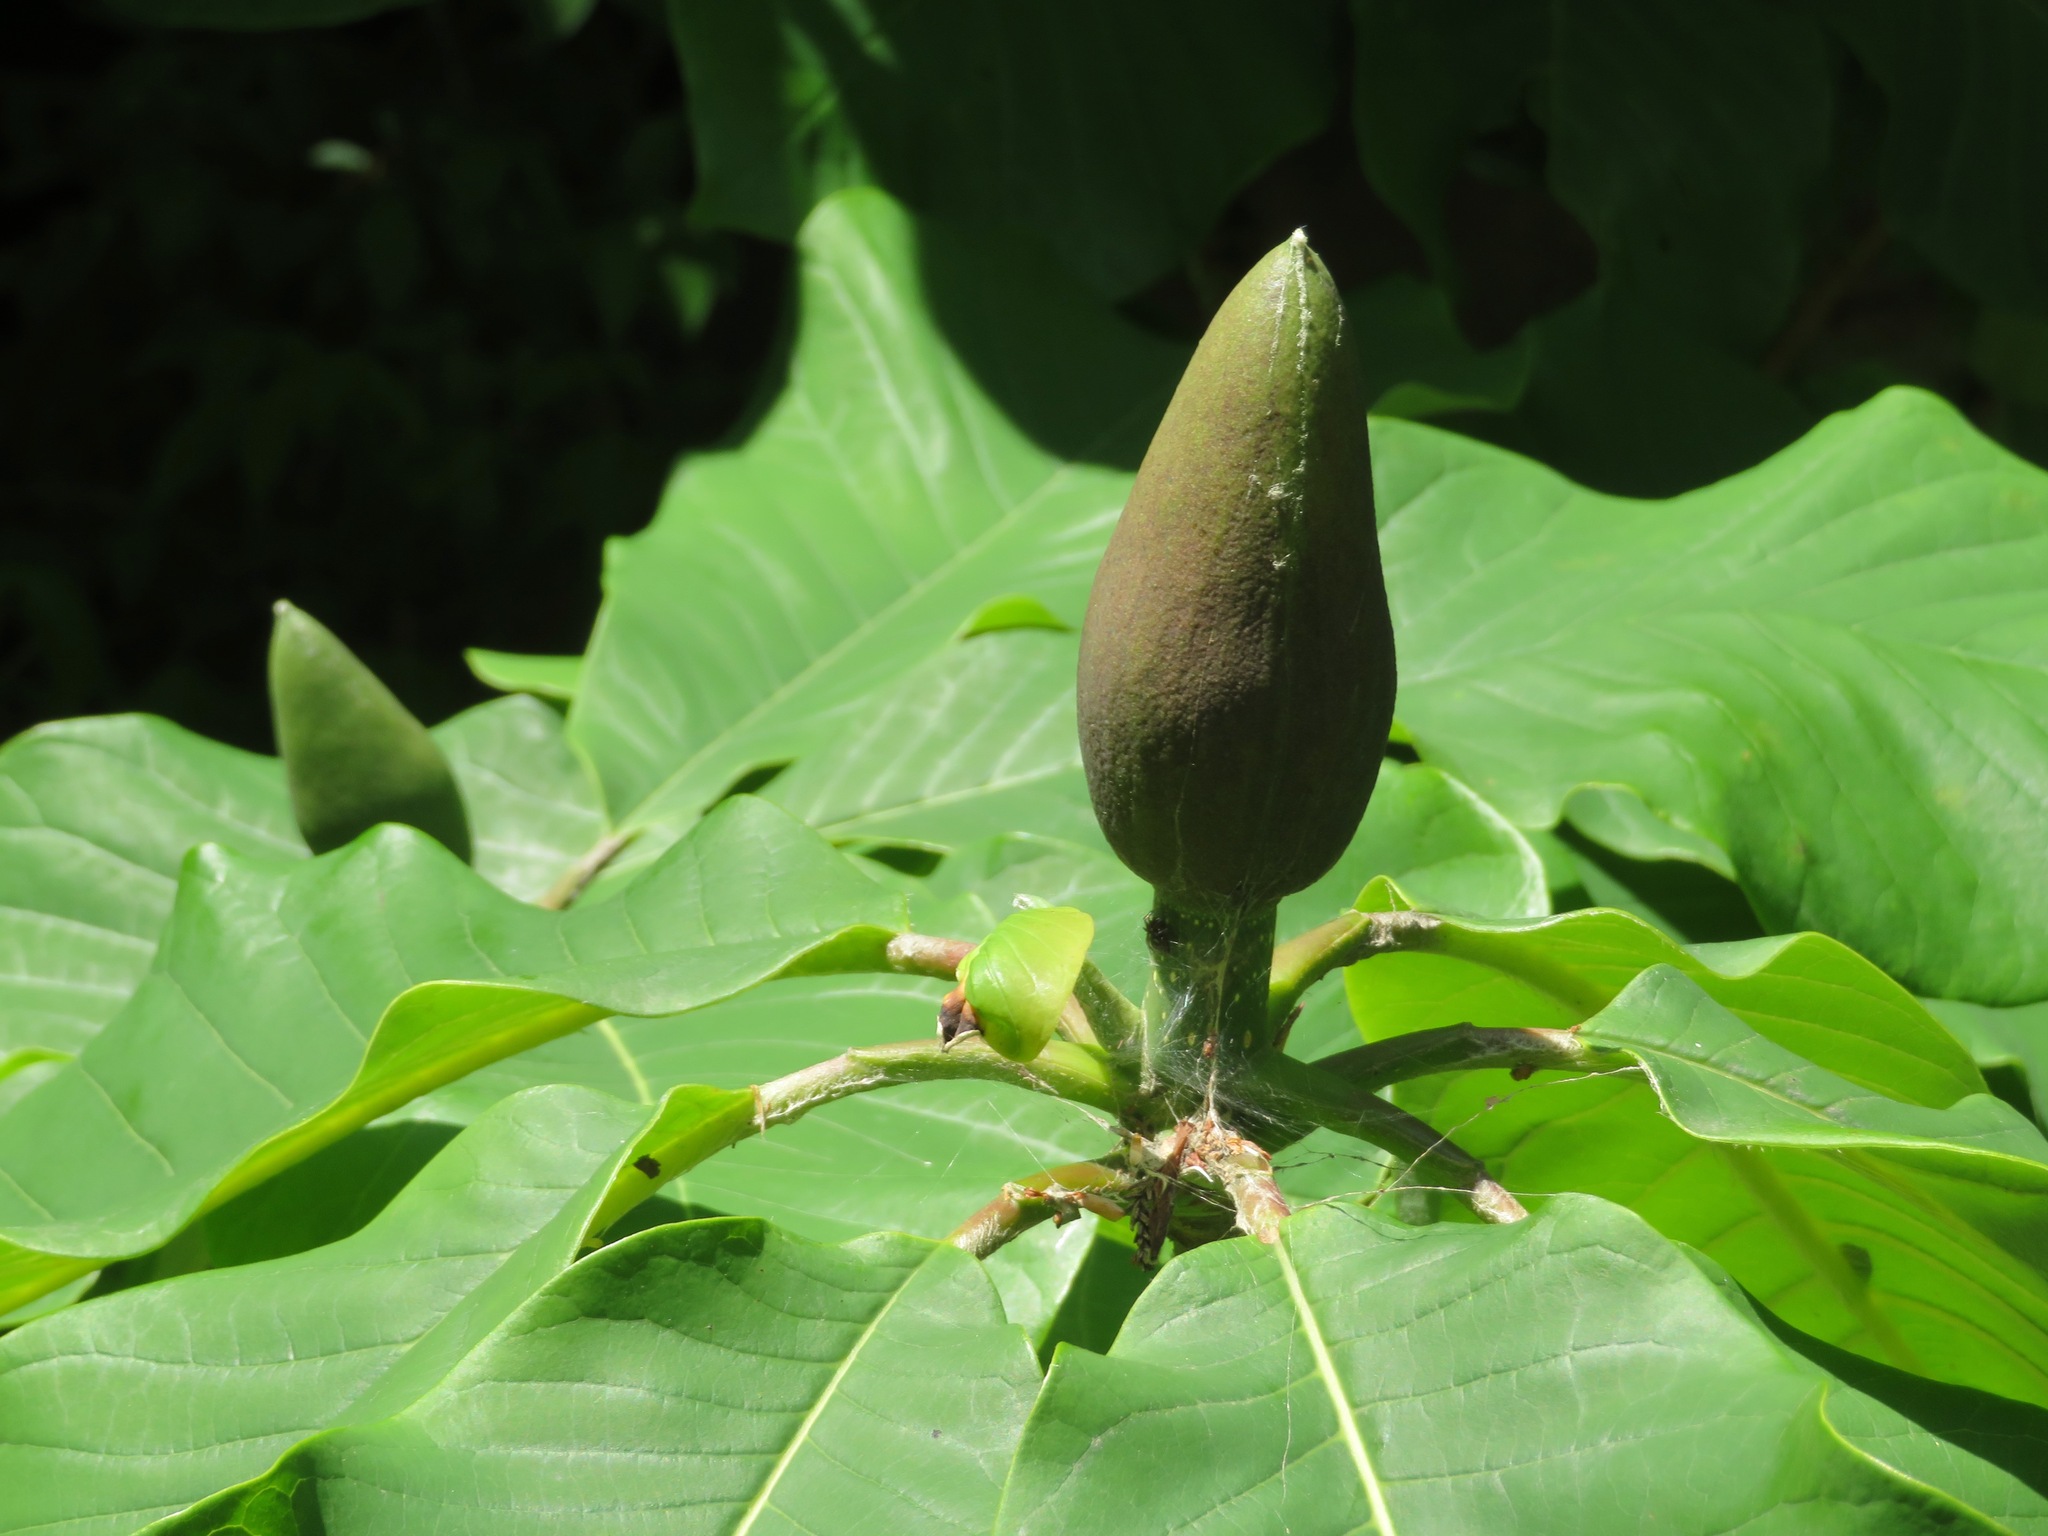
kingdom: Plantae
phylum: Tracheophyta
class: Magnoliopsida
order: Magnoliales
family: Magnoliaceae
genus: Magnolia
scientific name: Magnolia obovata
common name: Japanese whitebark magnolia
